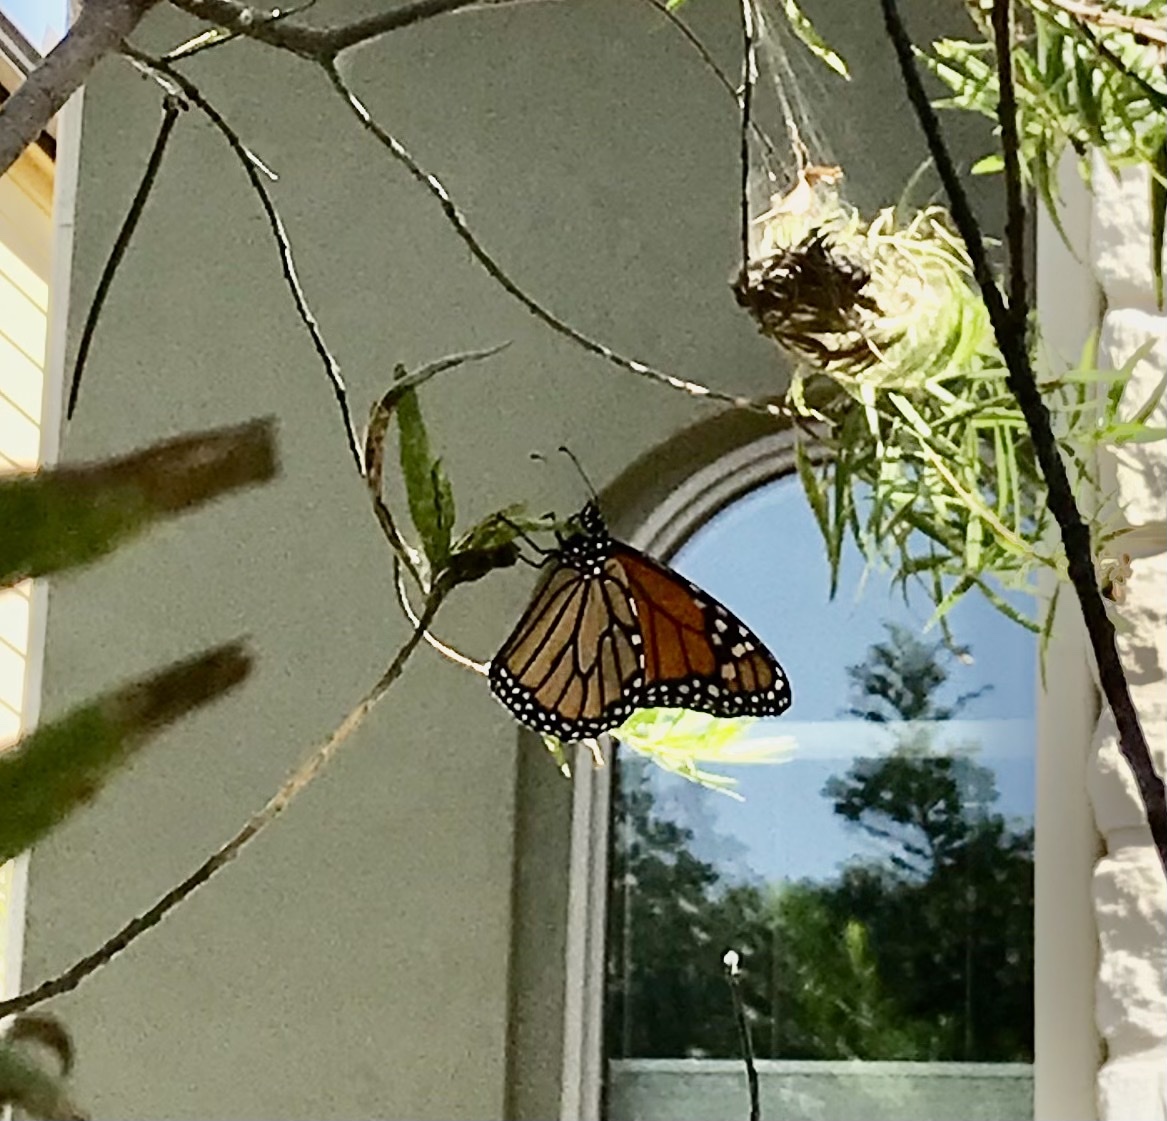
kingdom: Animalia
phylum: Arthropoda
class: Insecta
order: Lepidoptera
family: Nymphalidae
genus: Danaus
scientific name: Danaus plexippus
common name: Monarch
